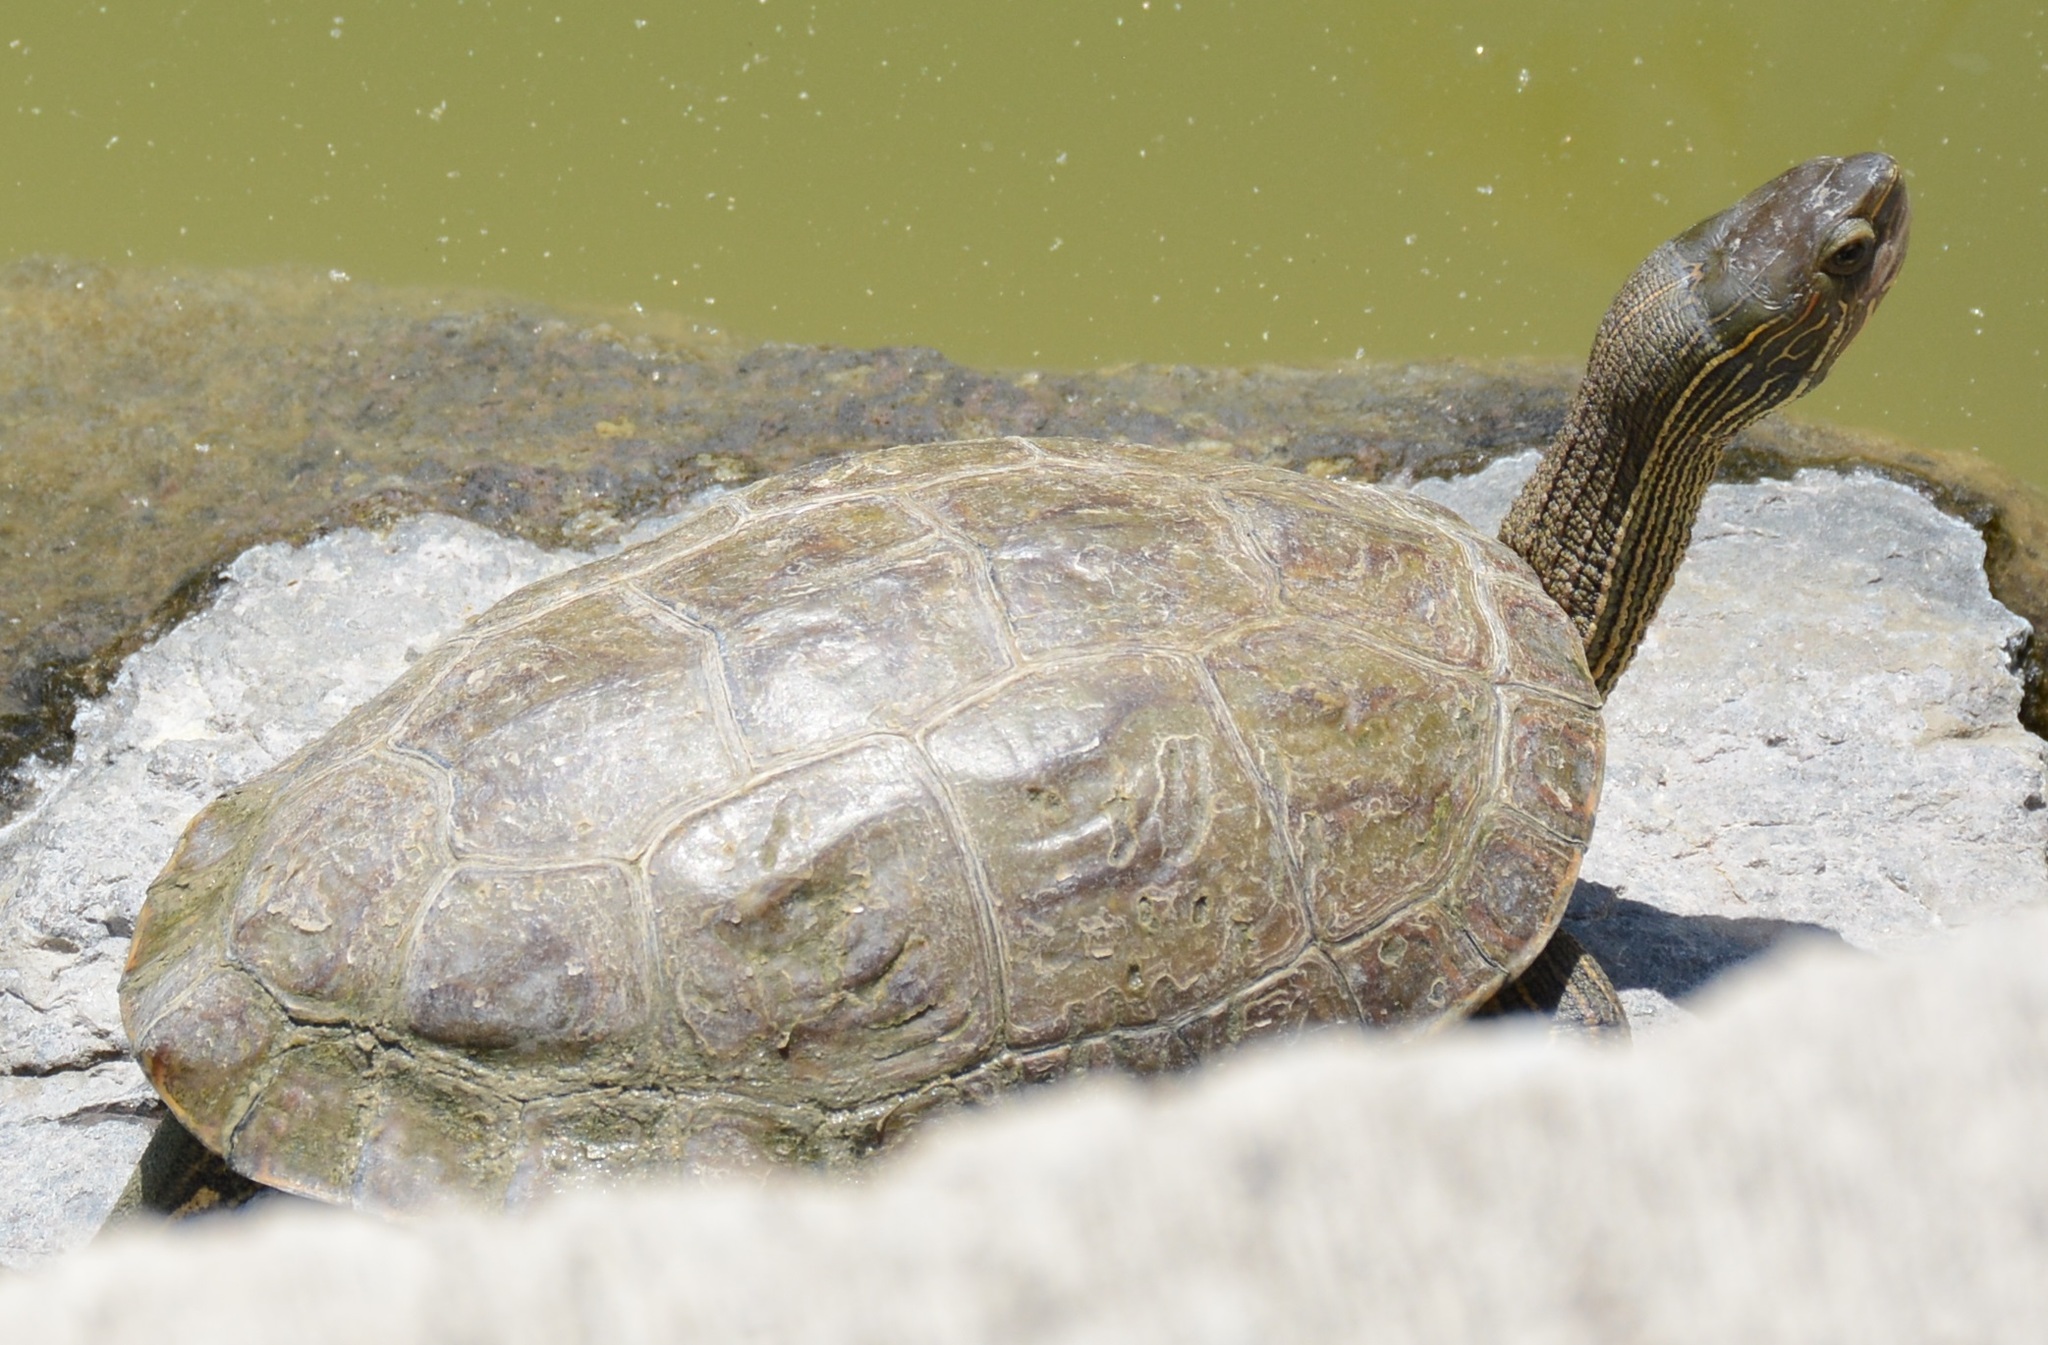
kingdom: Animalia
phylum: Chordata
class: Testudines
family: Geoemydidae
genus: Mauremys
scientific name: Mauremys rivulata
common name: Western caspian turtle
